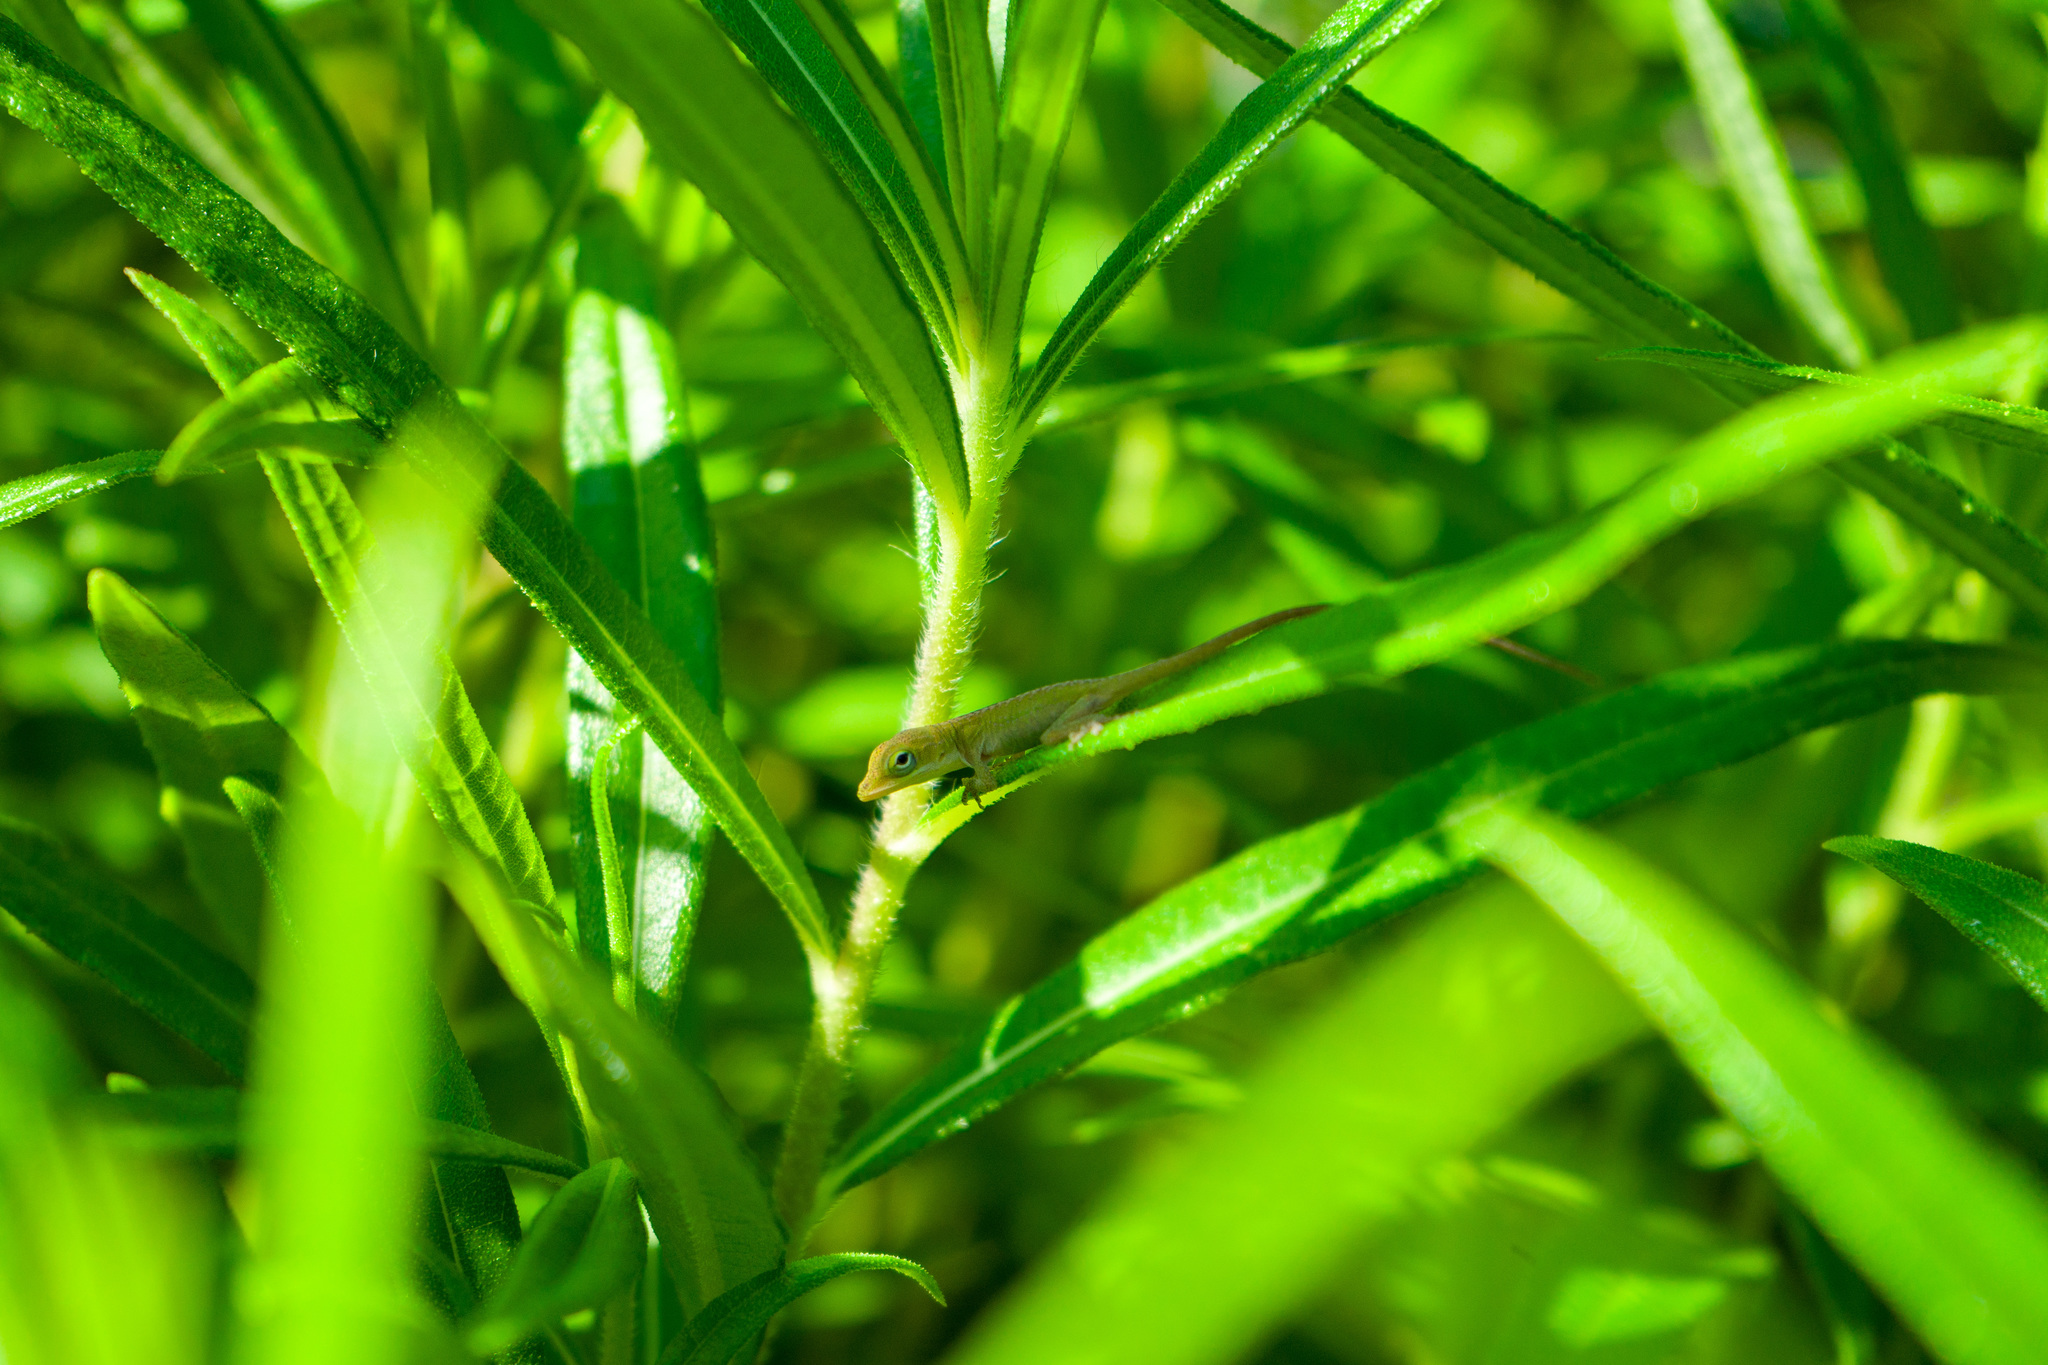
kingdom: Animalia
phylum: Chordata
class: Squamata
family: Dactyloidae
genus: Anolis
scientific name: Anolis carolinensis
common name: Green anole
